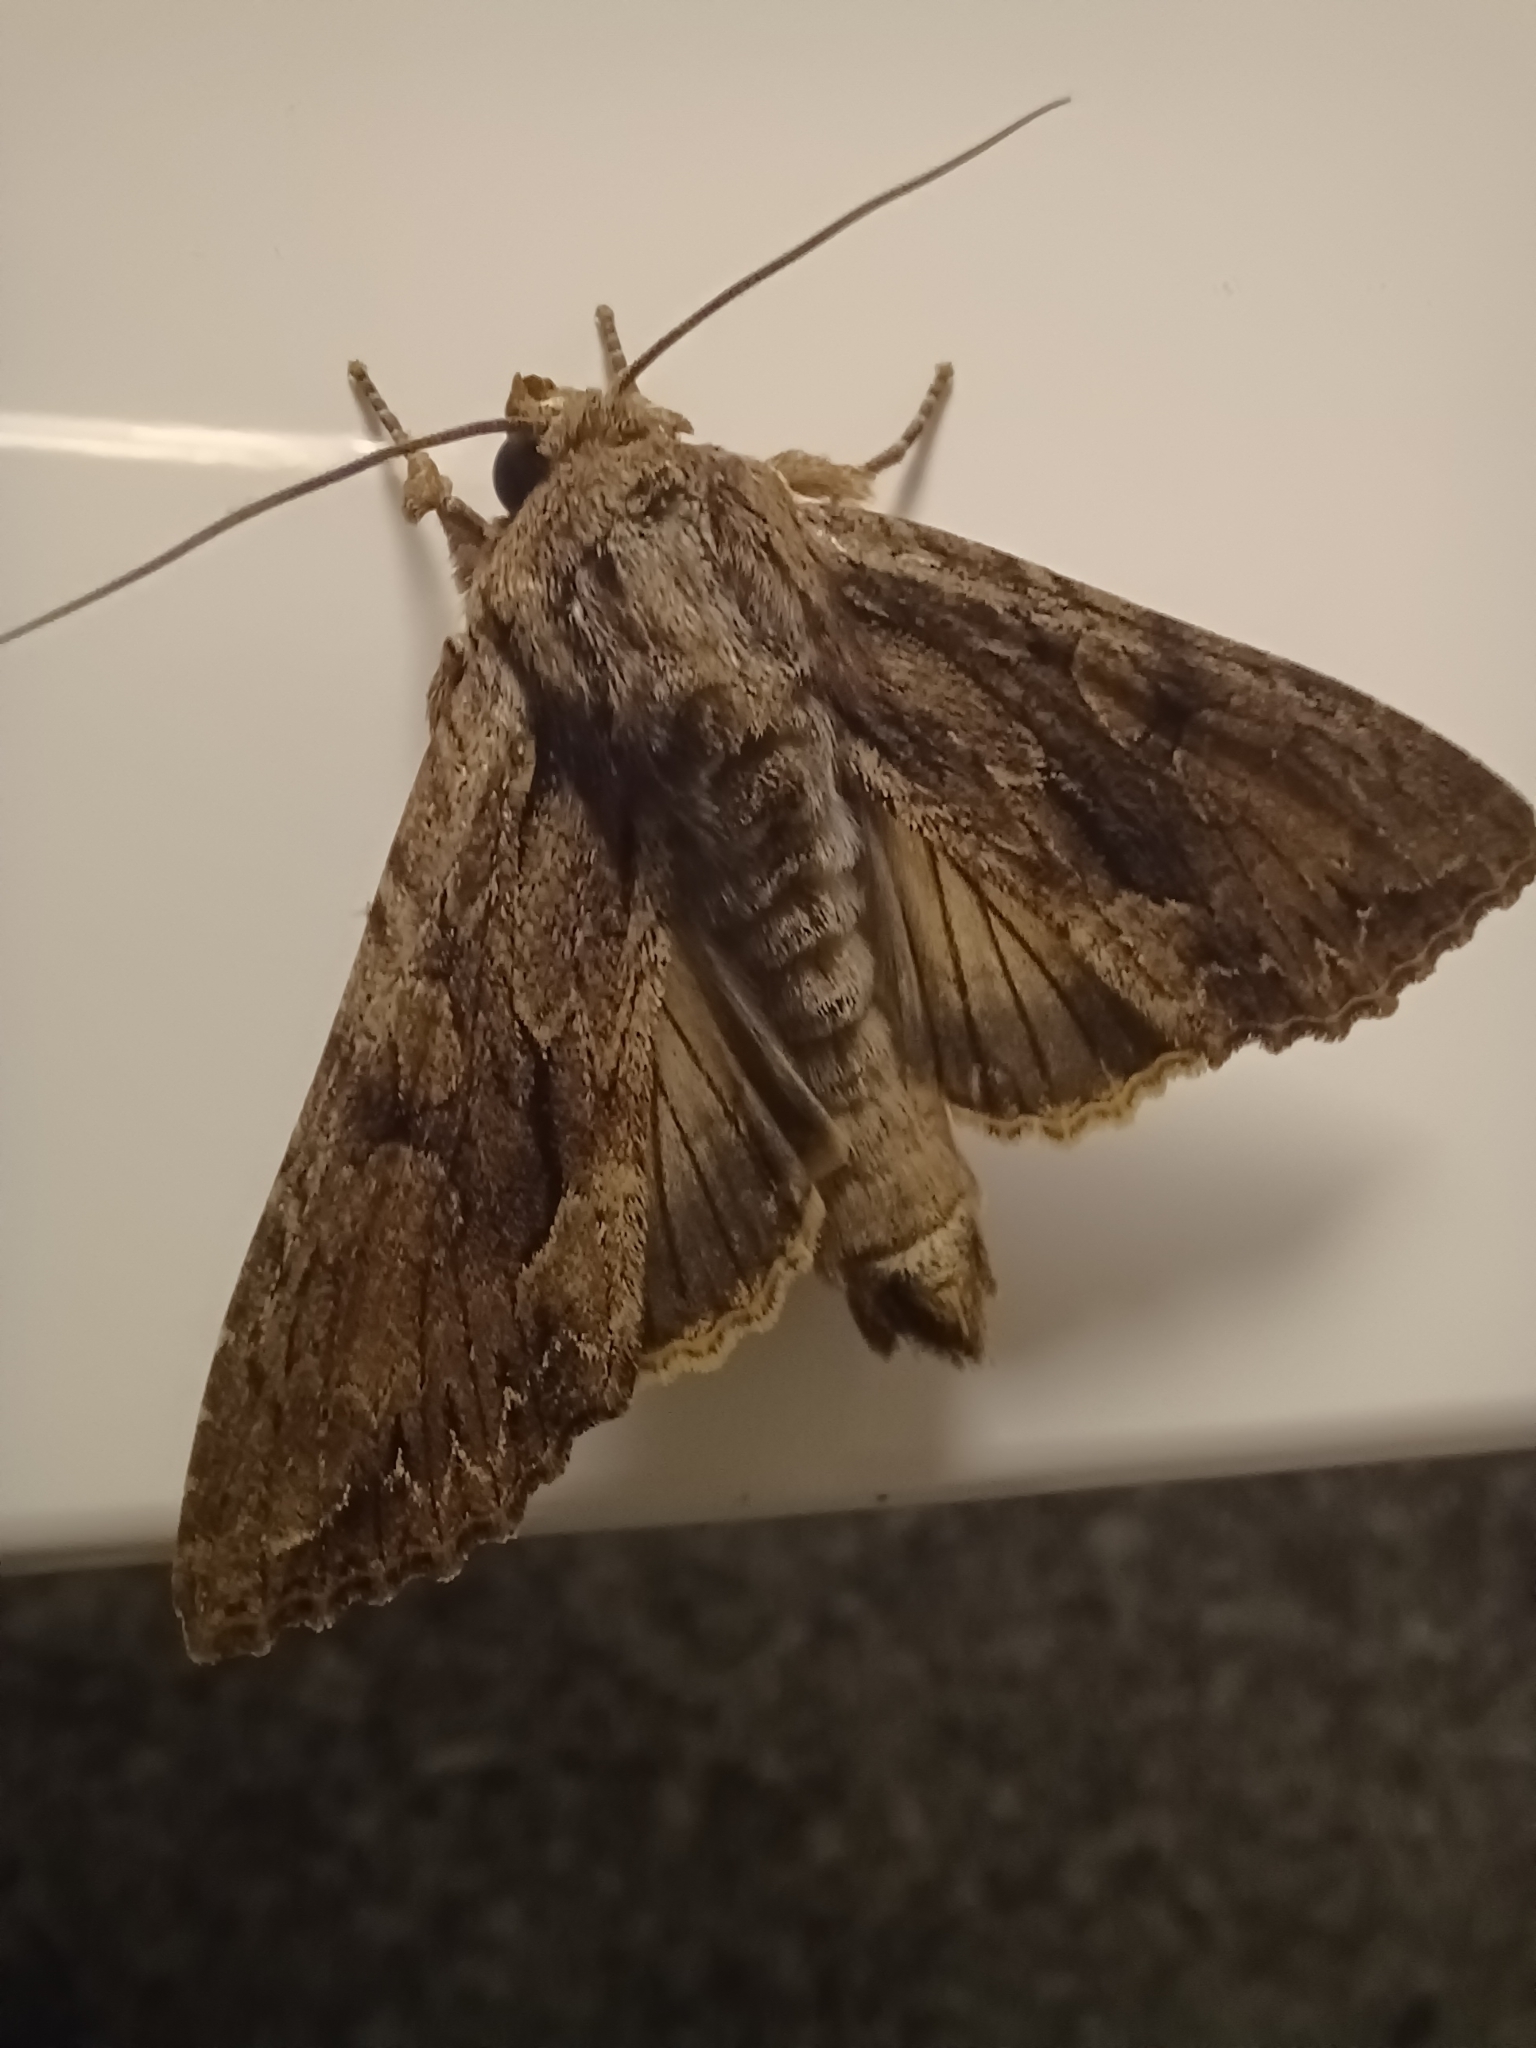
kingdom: Animalia
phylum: Arthropoda
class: Insecta
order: Lepidoptera
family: Noctuidae
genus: Apamea
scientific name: Apamea monoglypha
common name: Dark arches
